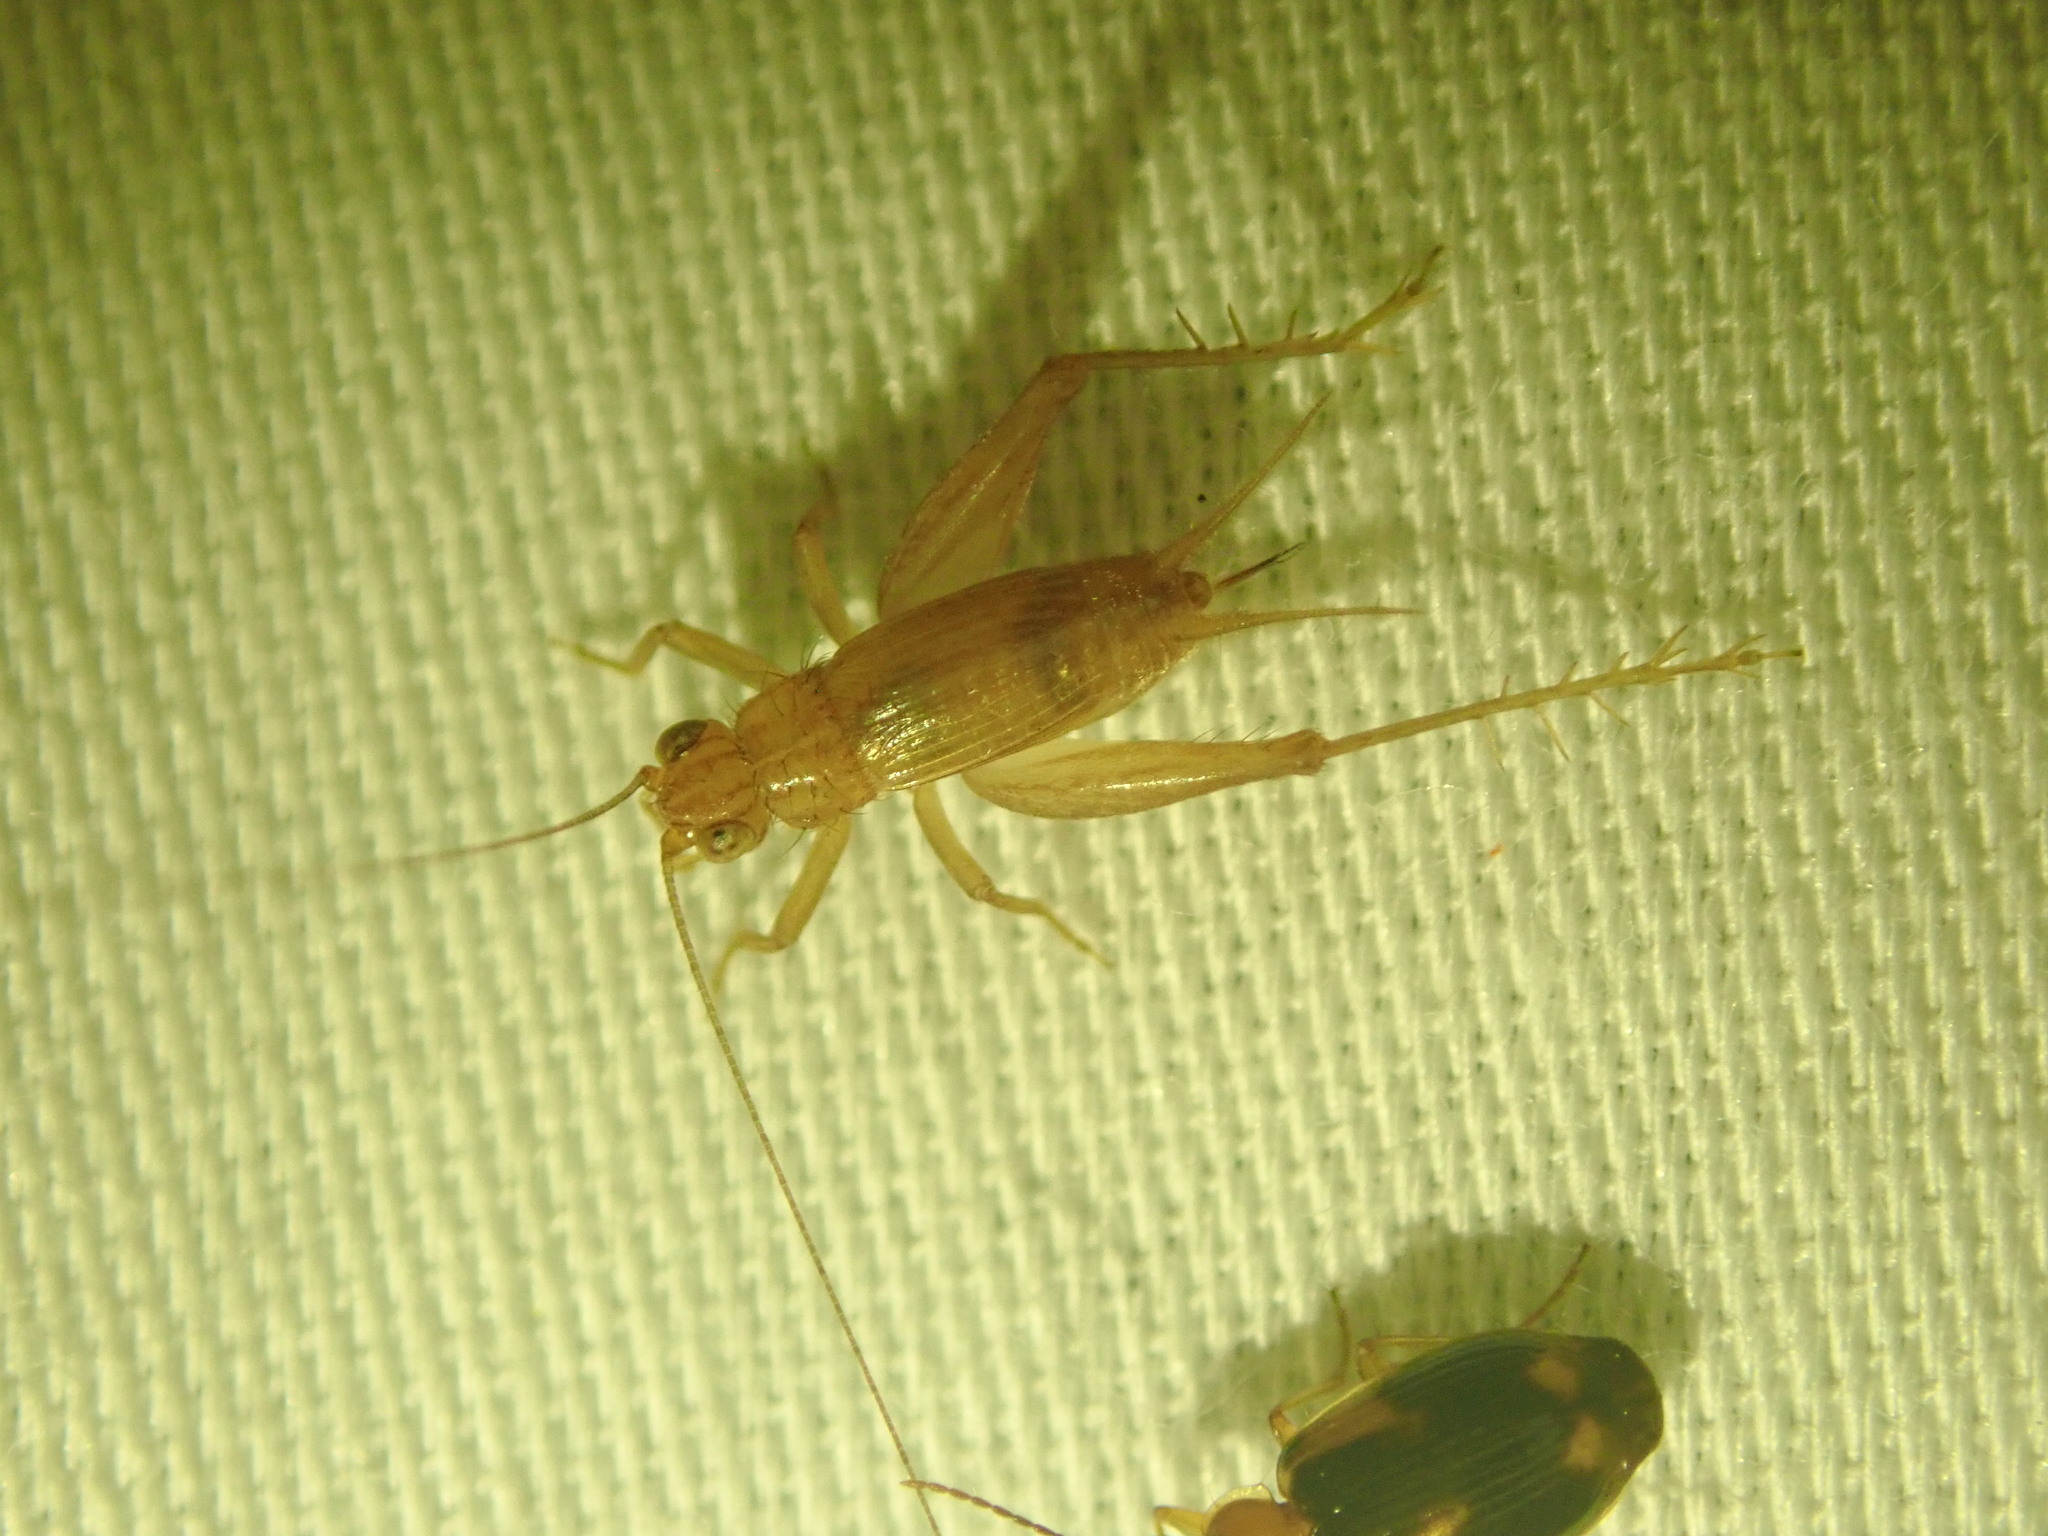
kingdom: Animalia
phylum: Arthropoda
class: Insecta
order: Orthoptera
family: Trigonidiidae
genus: Anaxipha
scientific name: Anaxipha vernalis
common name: Spring trig
